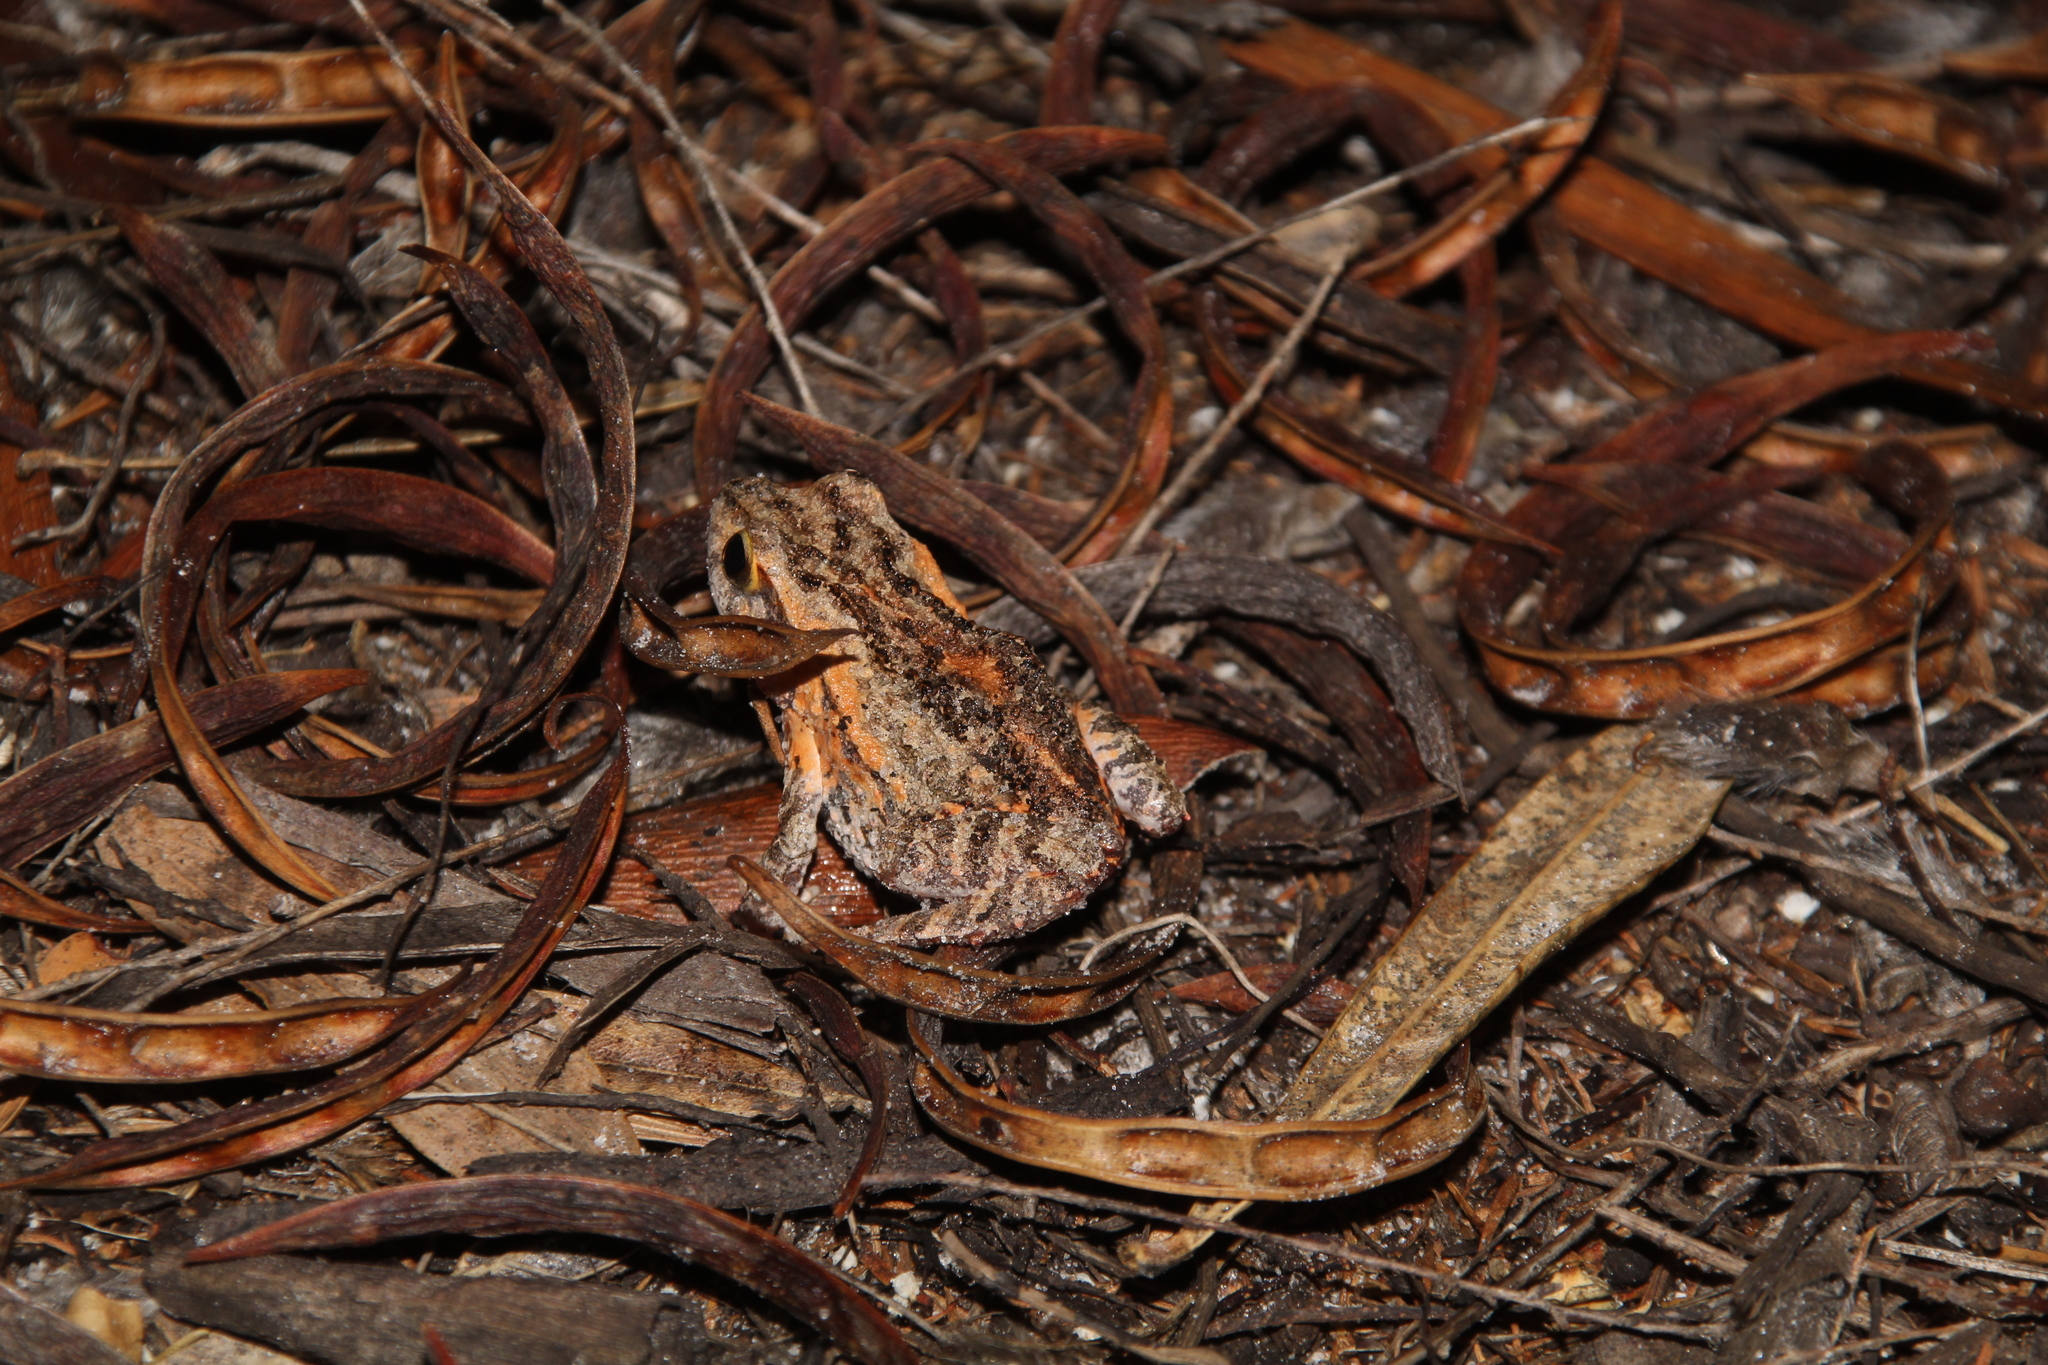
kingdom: Animalia
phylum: Chordata
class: Amphibia
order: Anura
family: Myobatrachidae
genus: Crinia
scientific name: Crinia georgiana
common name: Quacking frog
